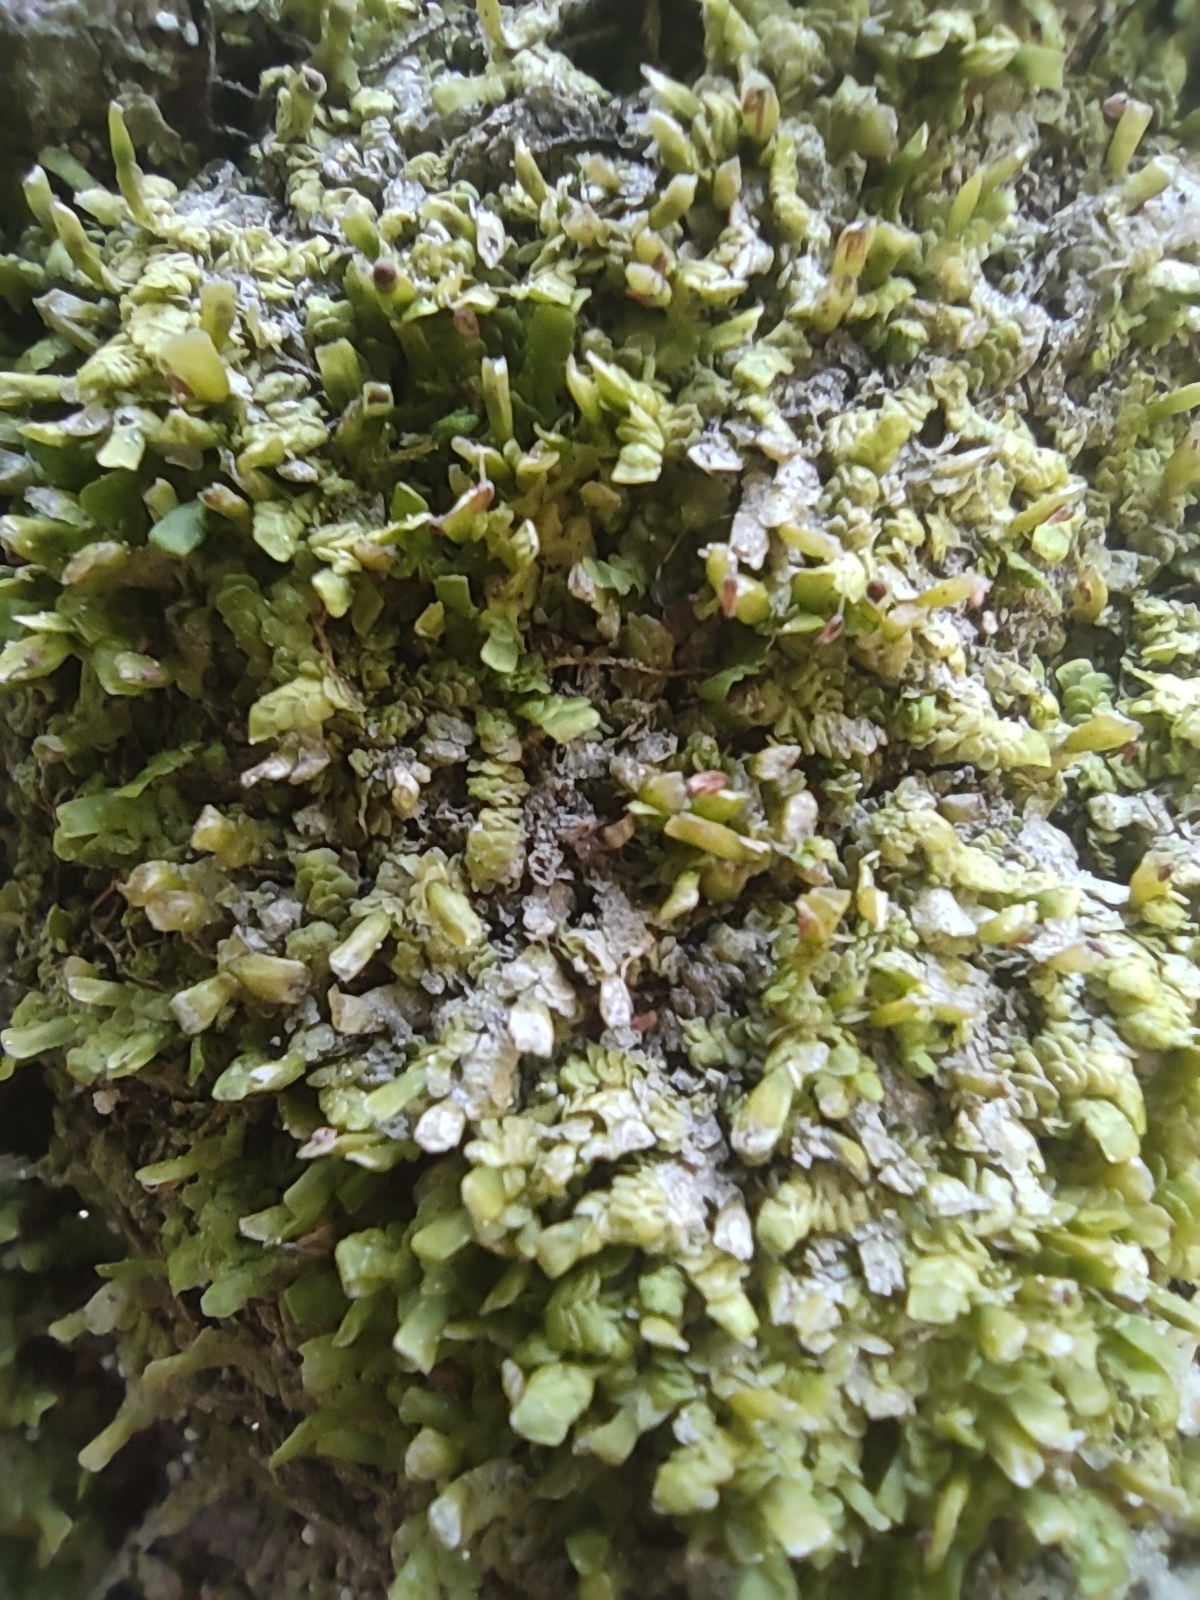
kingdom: Plantae
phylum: Marchantiophyta
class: Jungermanniopsida
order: Porellales
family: Radulaceae
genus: Radula
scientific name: Radula complanata
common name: Flat-leaved scalewort
